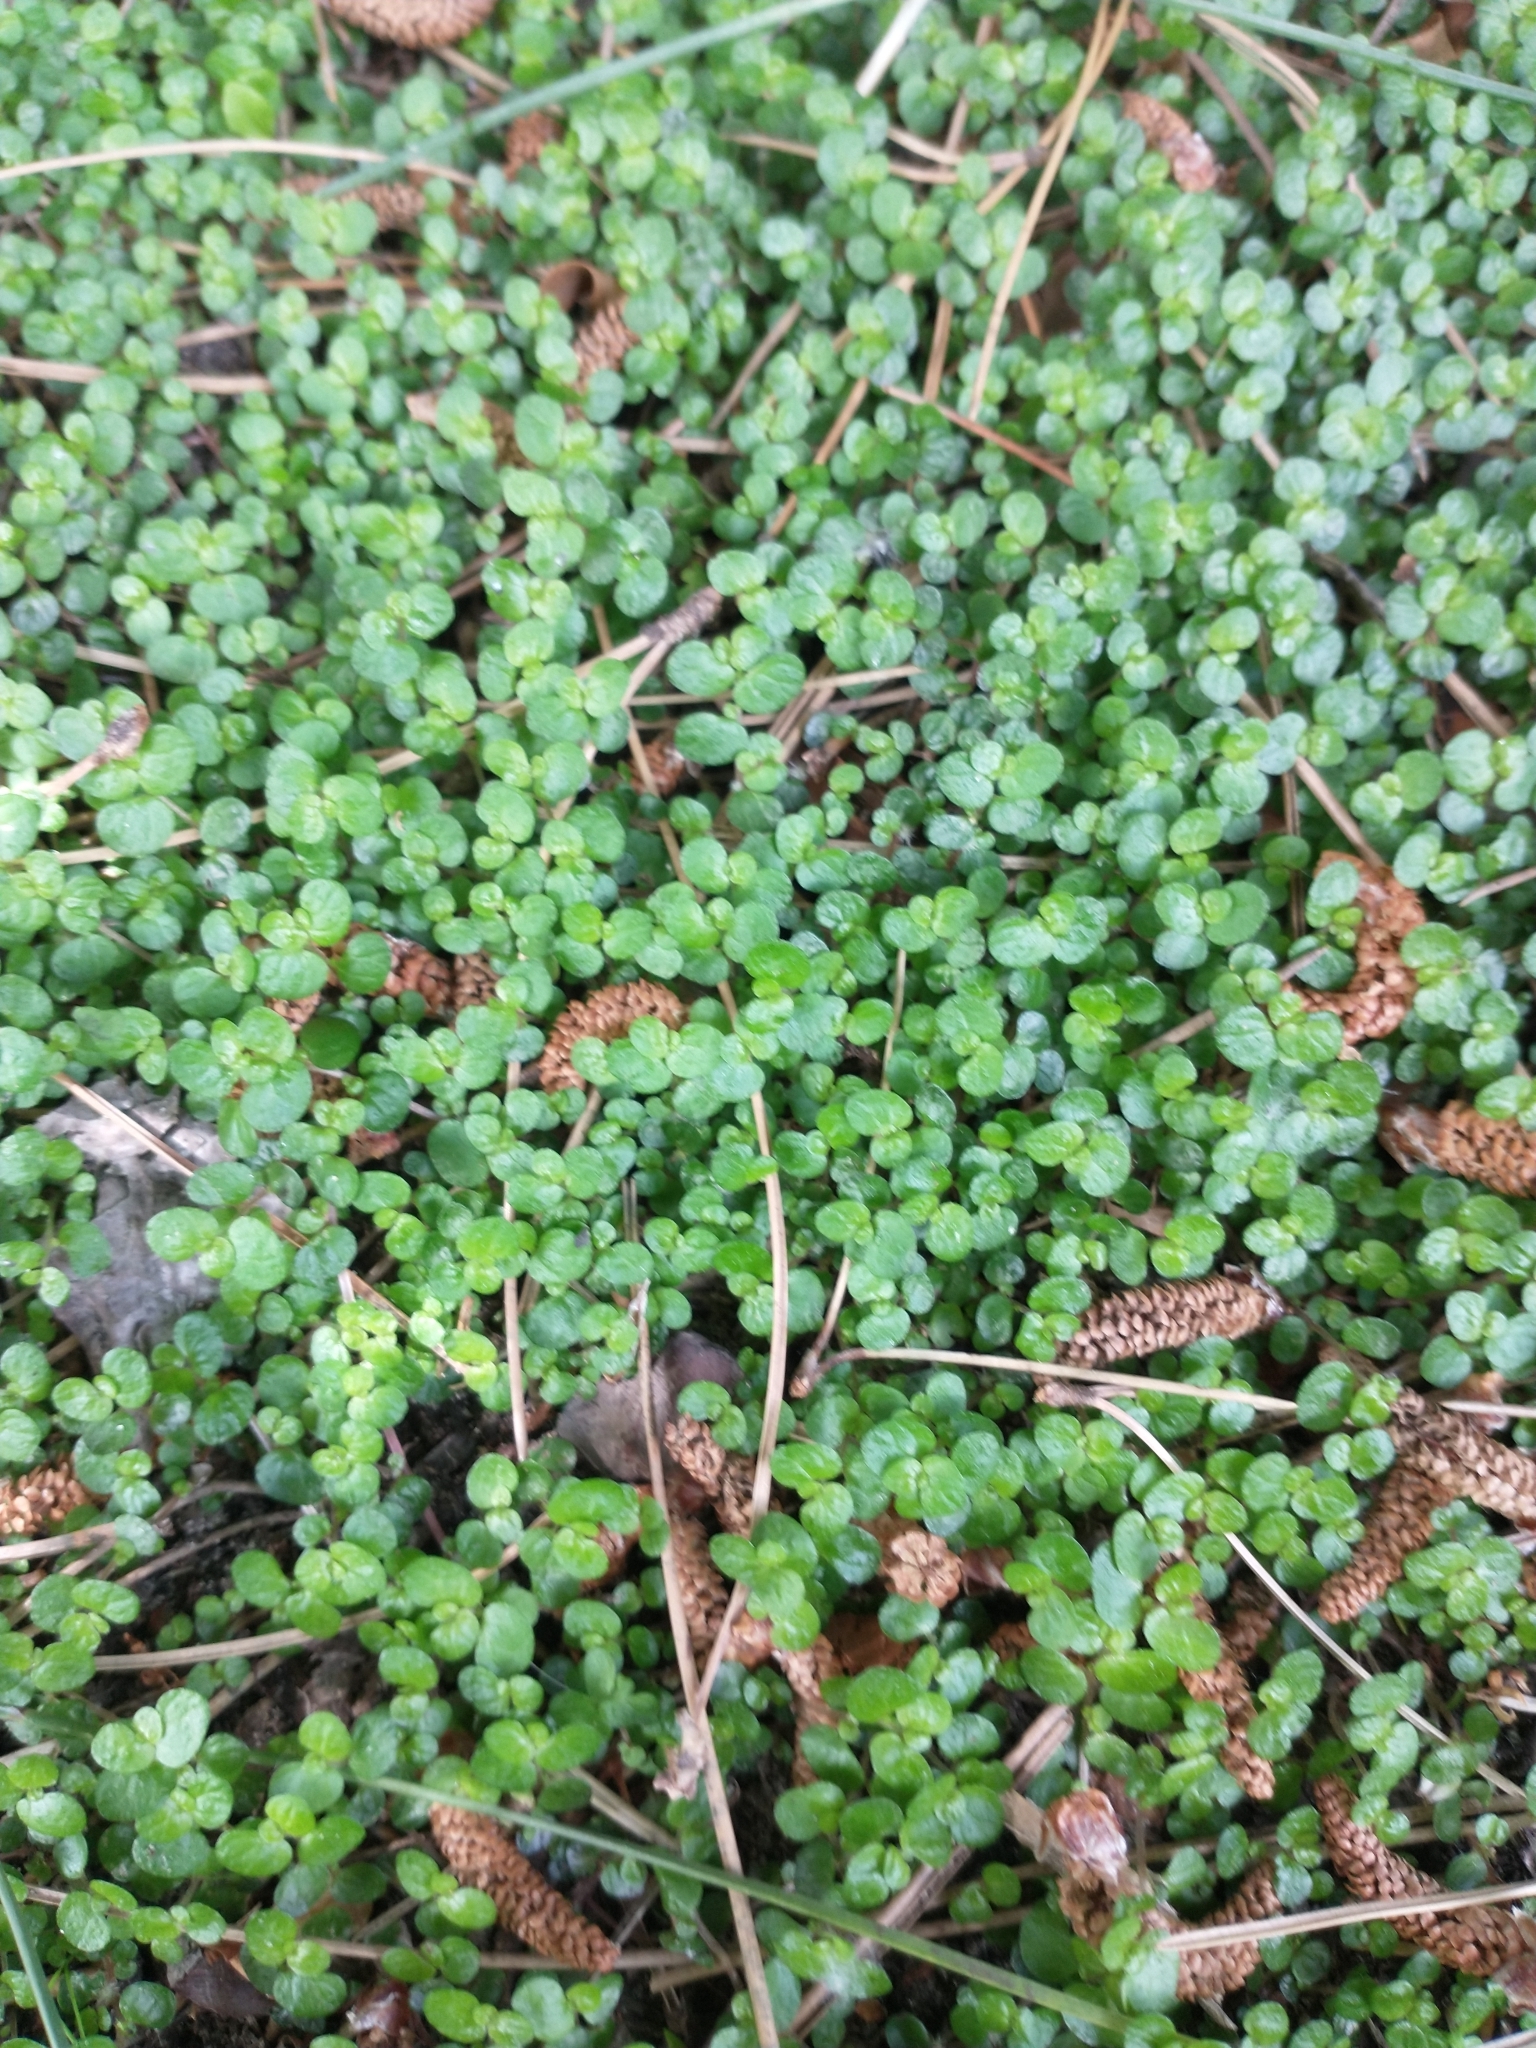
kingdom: Plantae
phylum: Tracheophyta
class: Magnoliopsida
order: Rosales
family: Urticaceae
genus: Soleirolia
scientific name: Soleirolia soleirolii
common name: Mind-your-own-business
